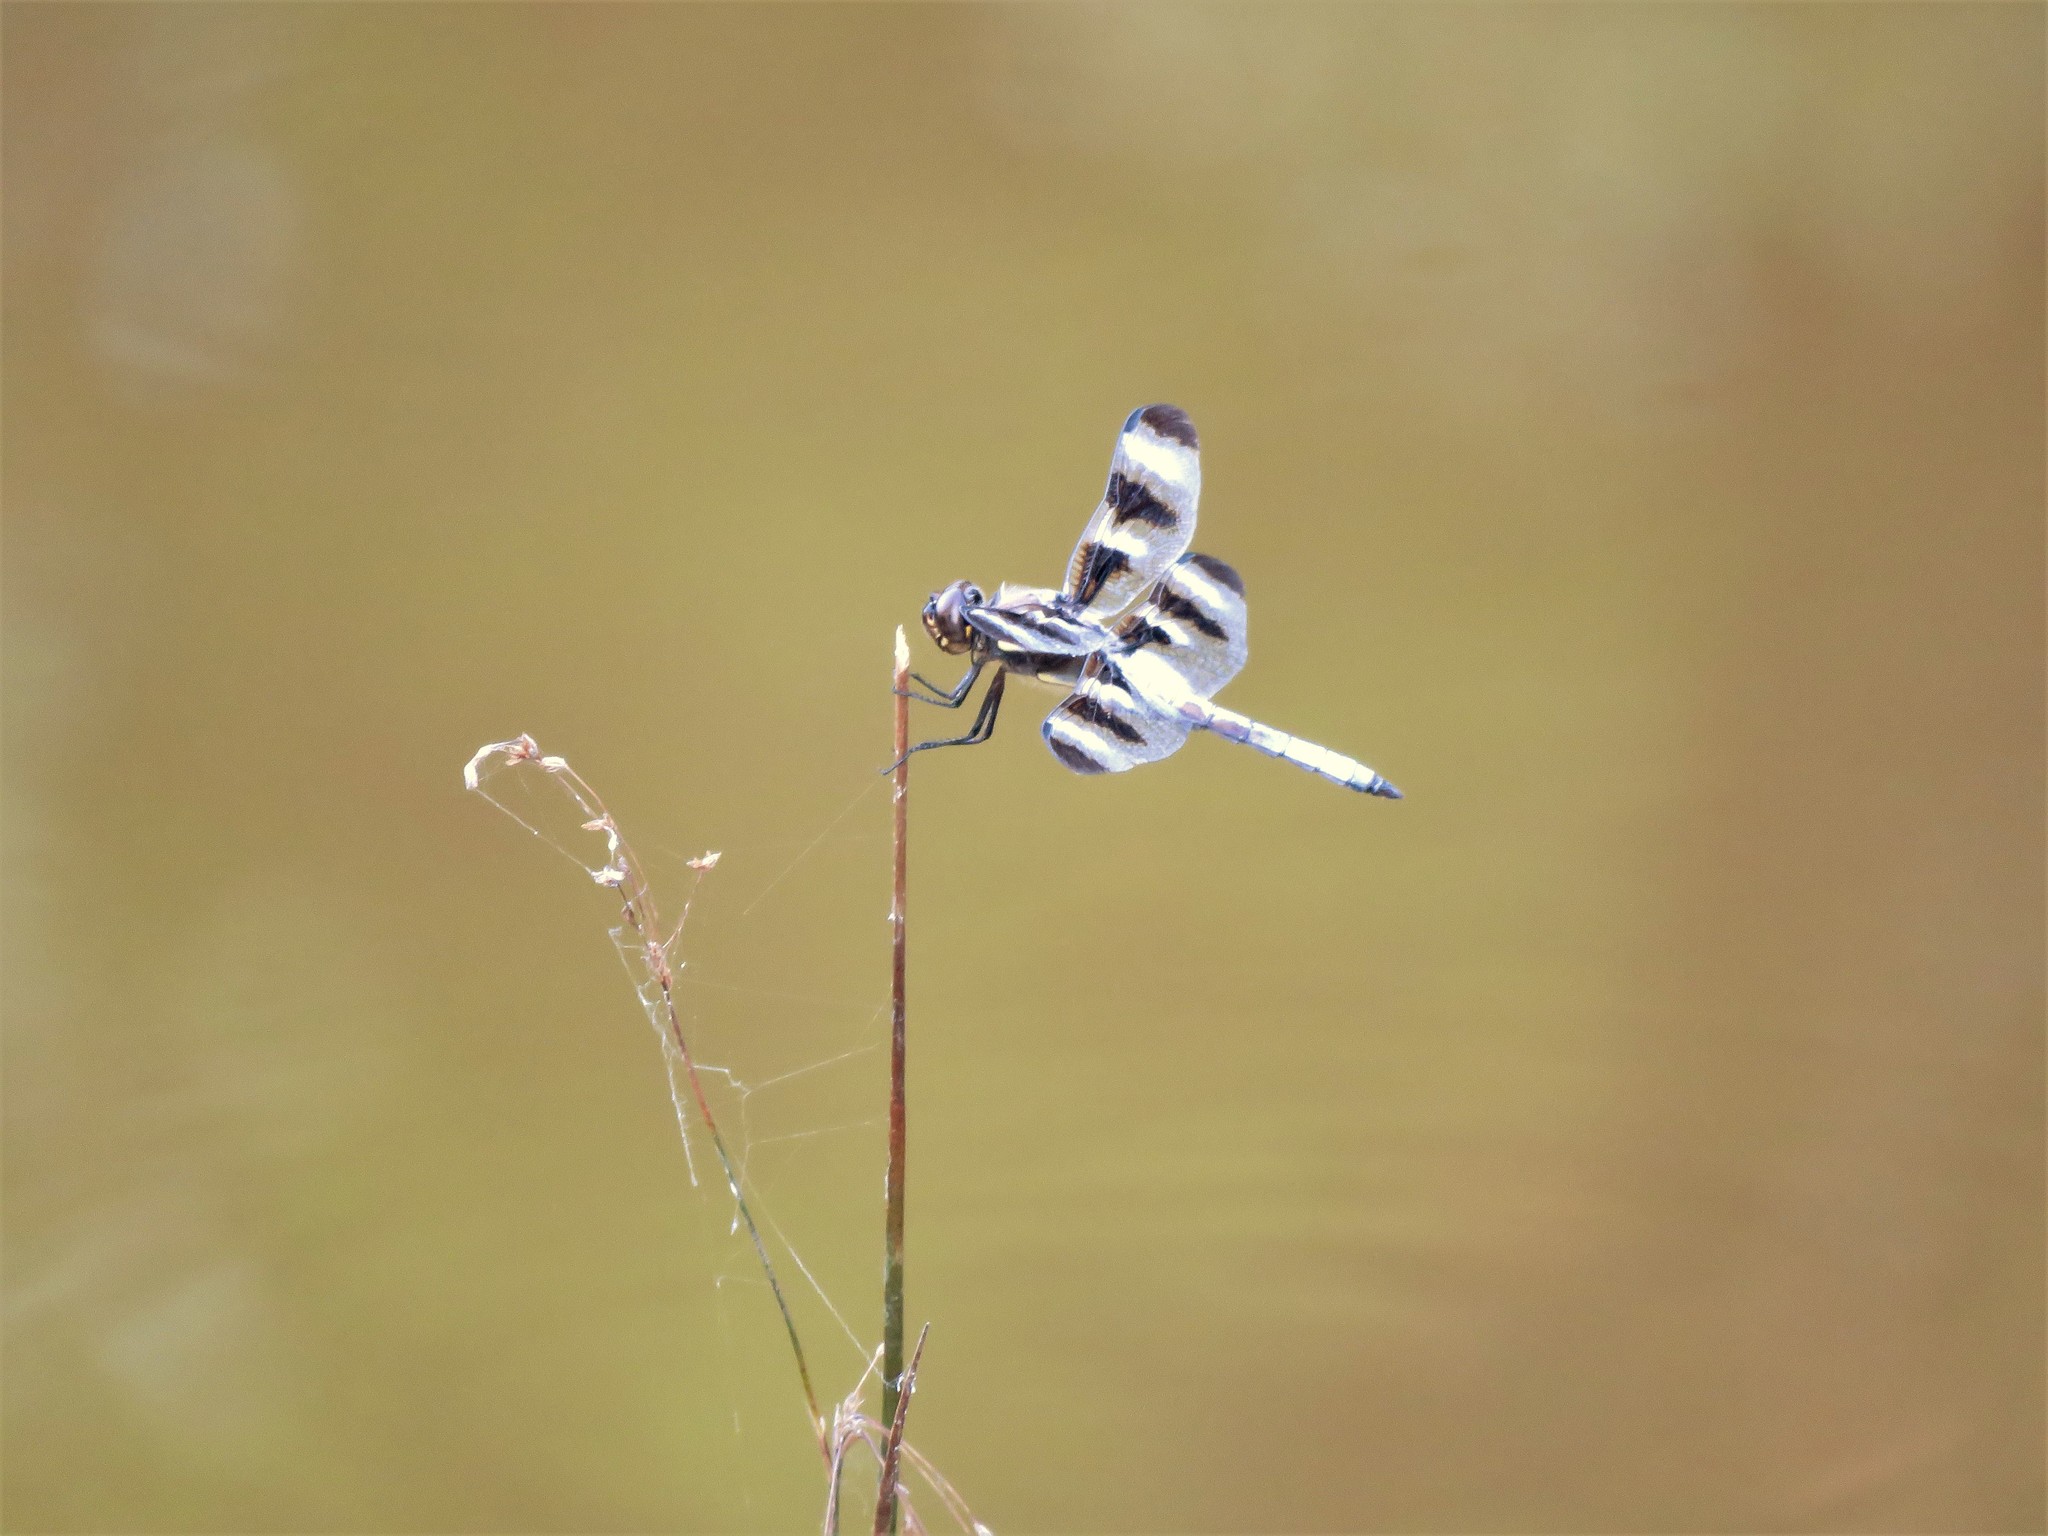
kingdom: Animalia
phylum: Arthropoda
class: Insecta
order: Odonata
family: Libellulidae
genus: Libellula
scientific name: Libellula pulchella
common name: Twelve-spotted skimmer
